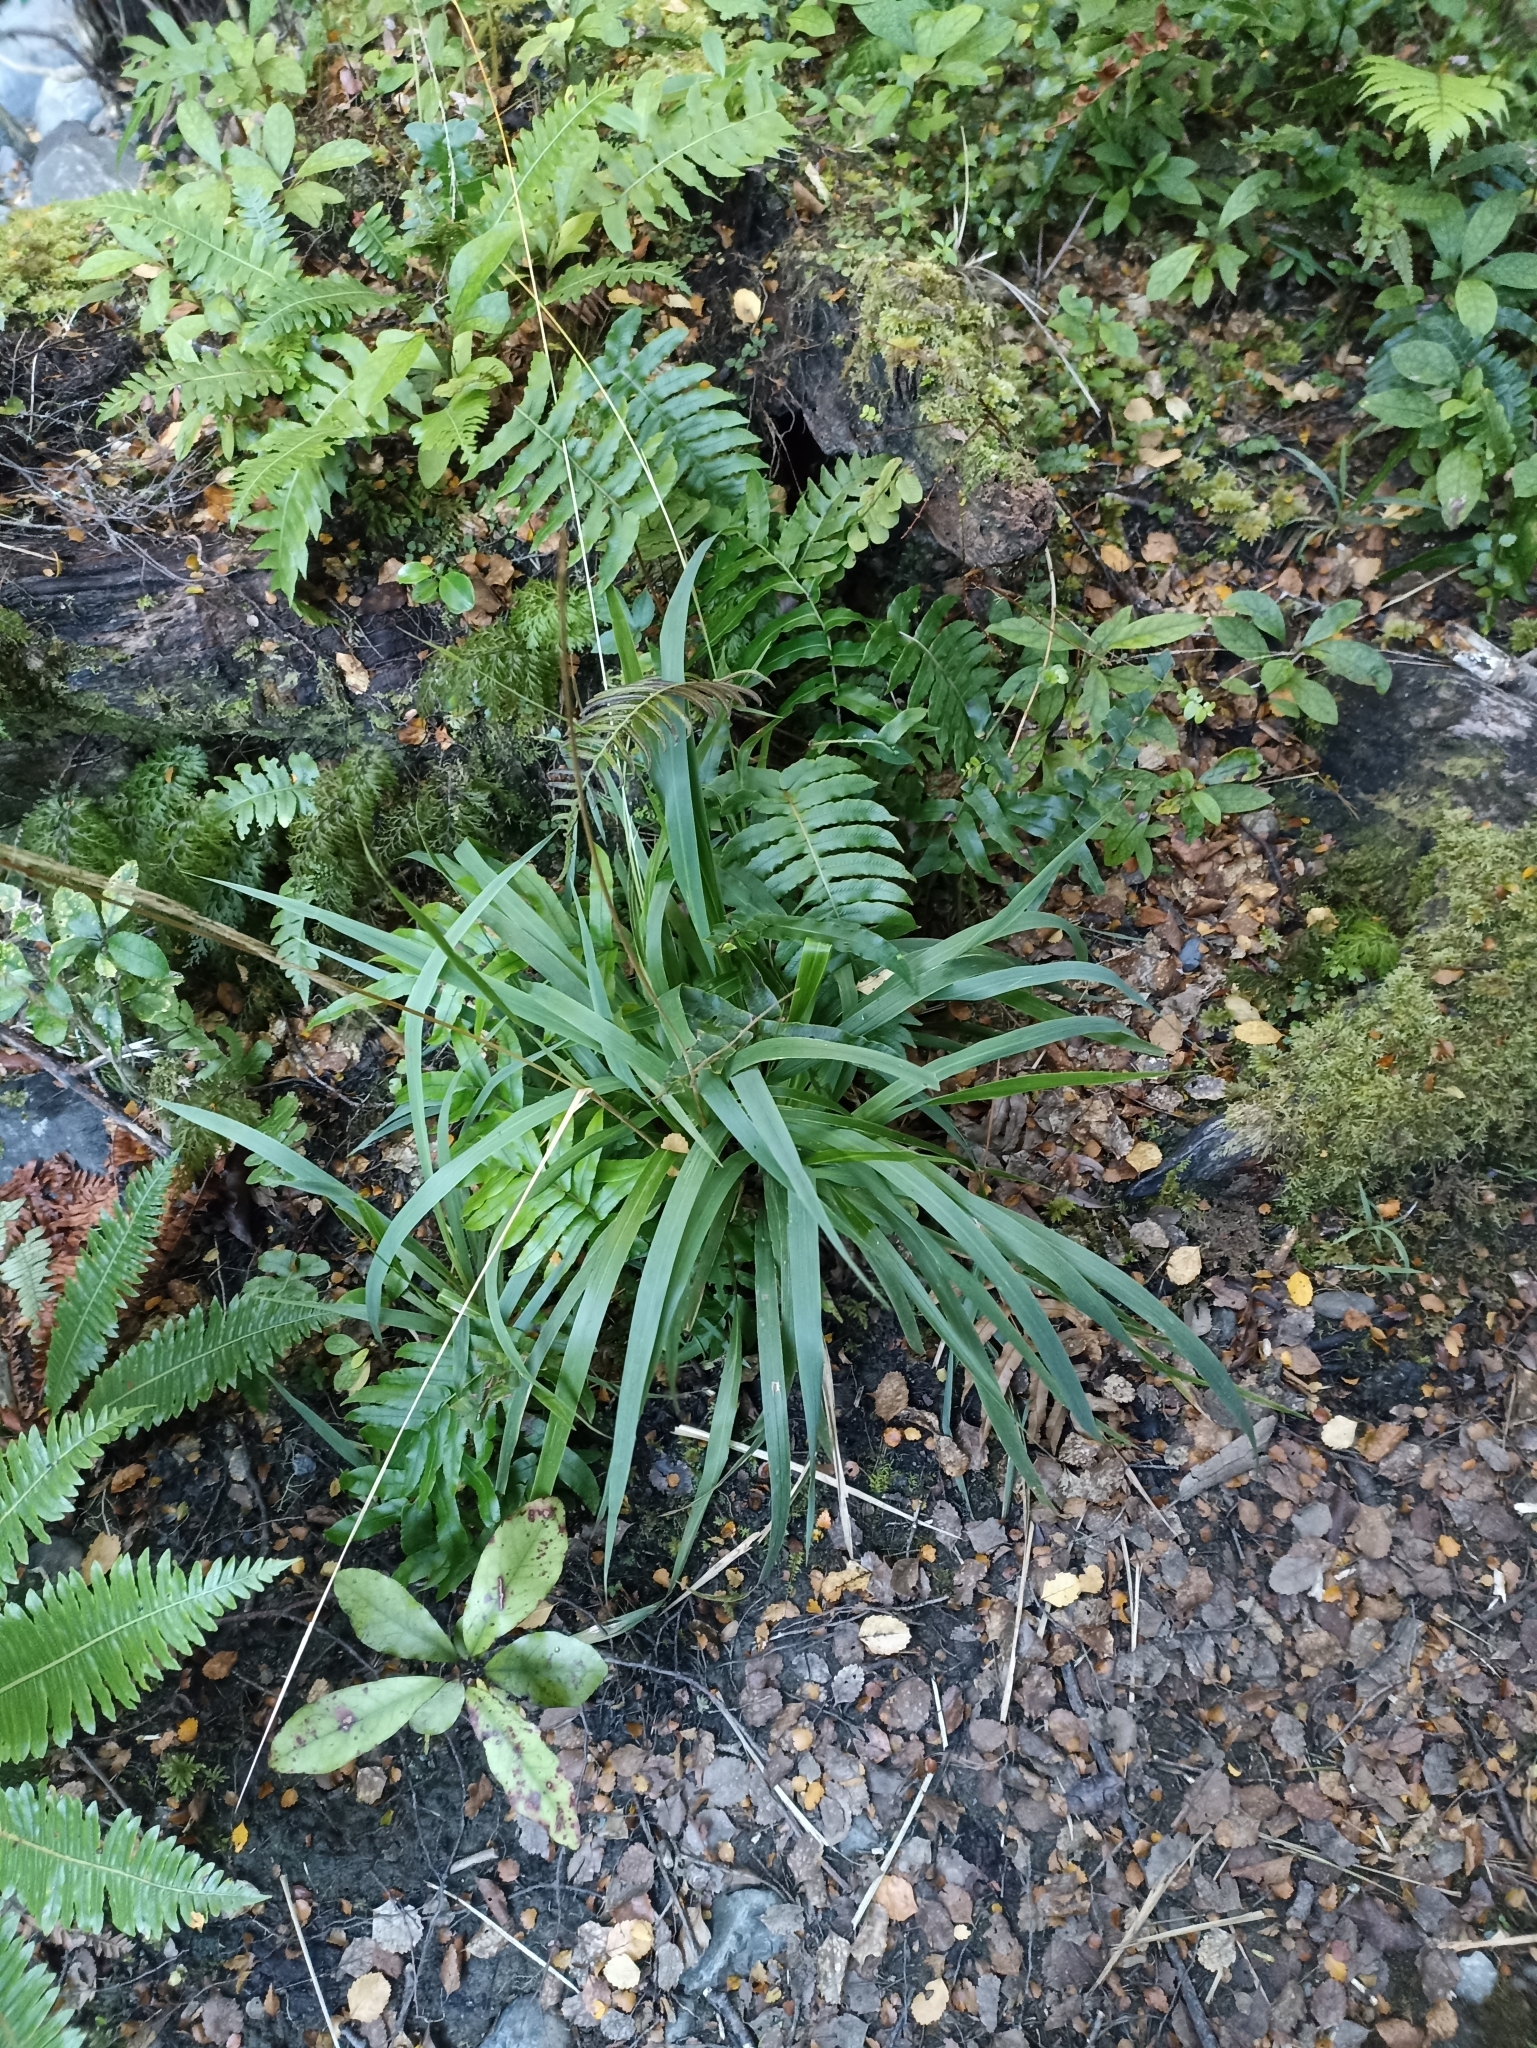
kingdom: Plantae
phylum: Tracheophyta
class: Liliopsida
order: Poales
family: Poaceae
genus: Ehrharta
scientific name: Ehrharta diplax
